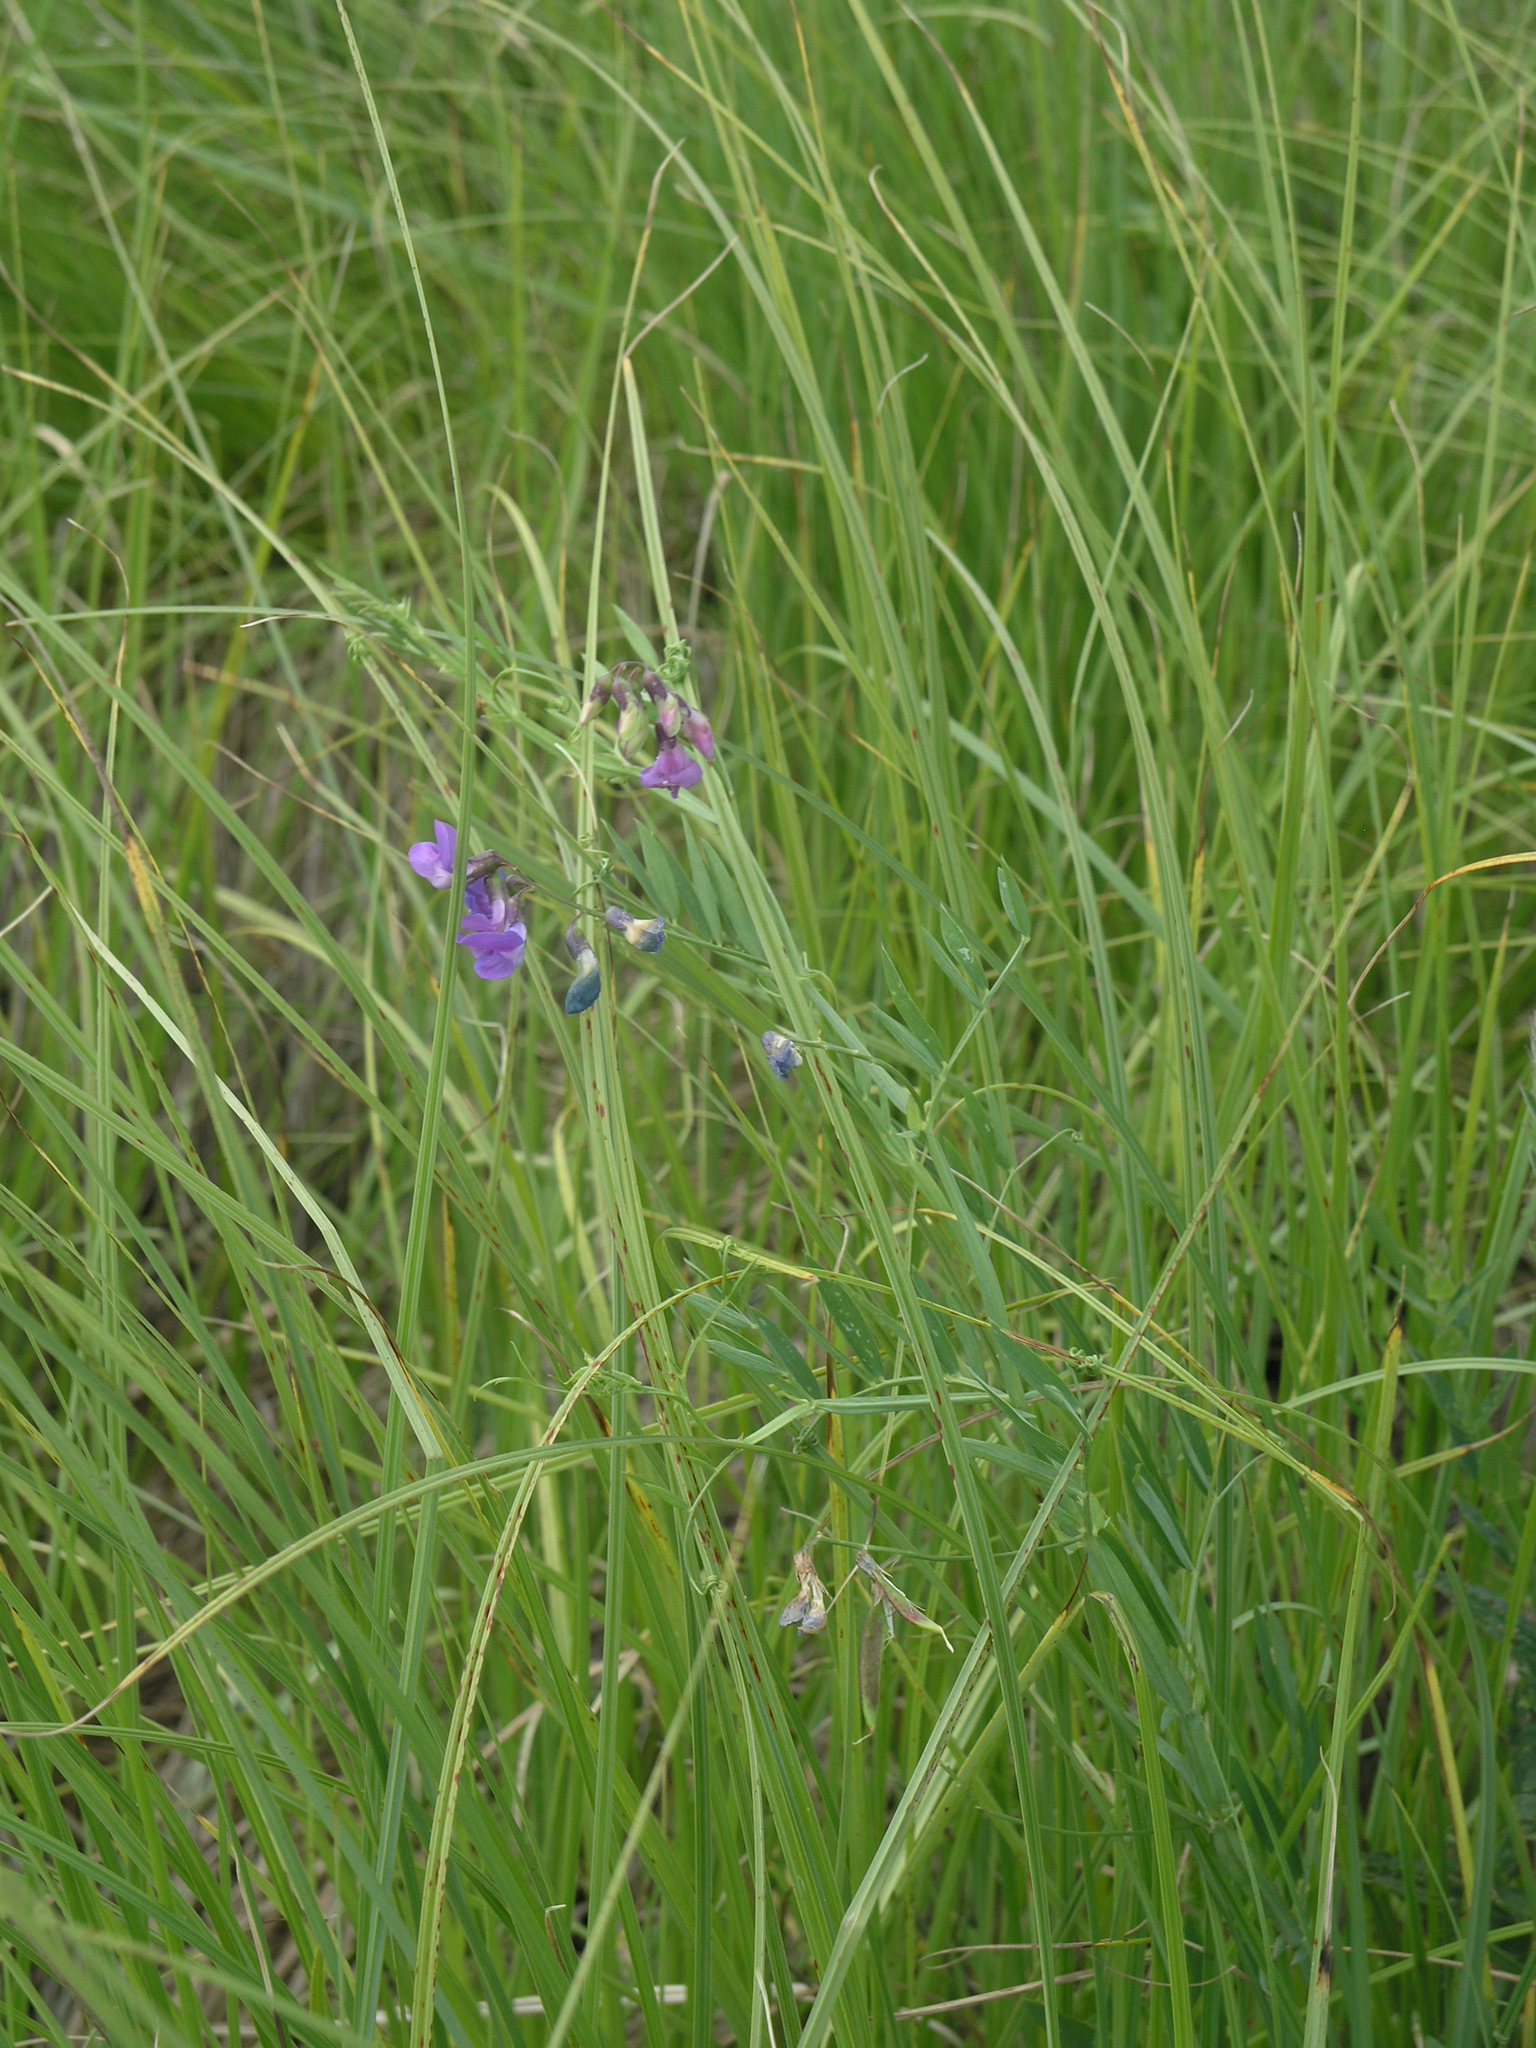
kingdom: Plantae
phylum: Tracheophyta
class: Magnoliopsida
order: Fabales
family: Fabaceae
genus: Lathyrus
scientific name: Lathyrus palustris
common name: Marsh pea
